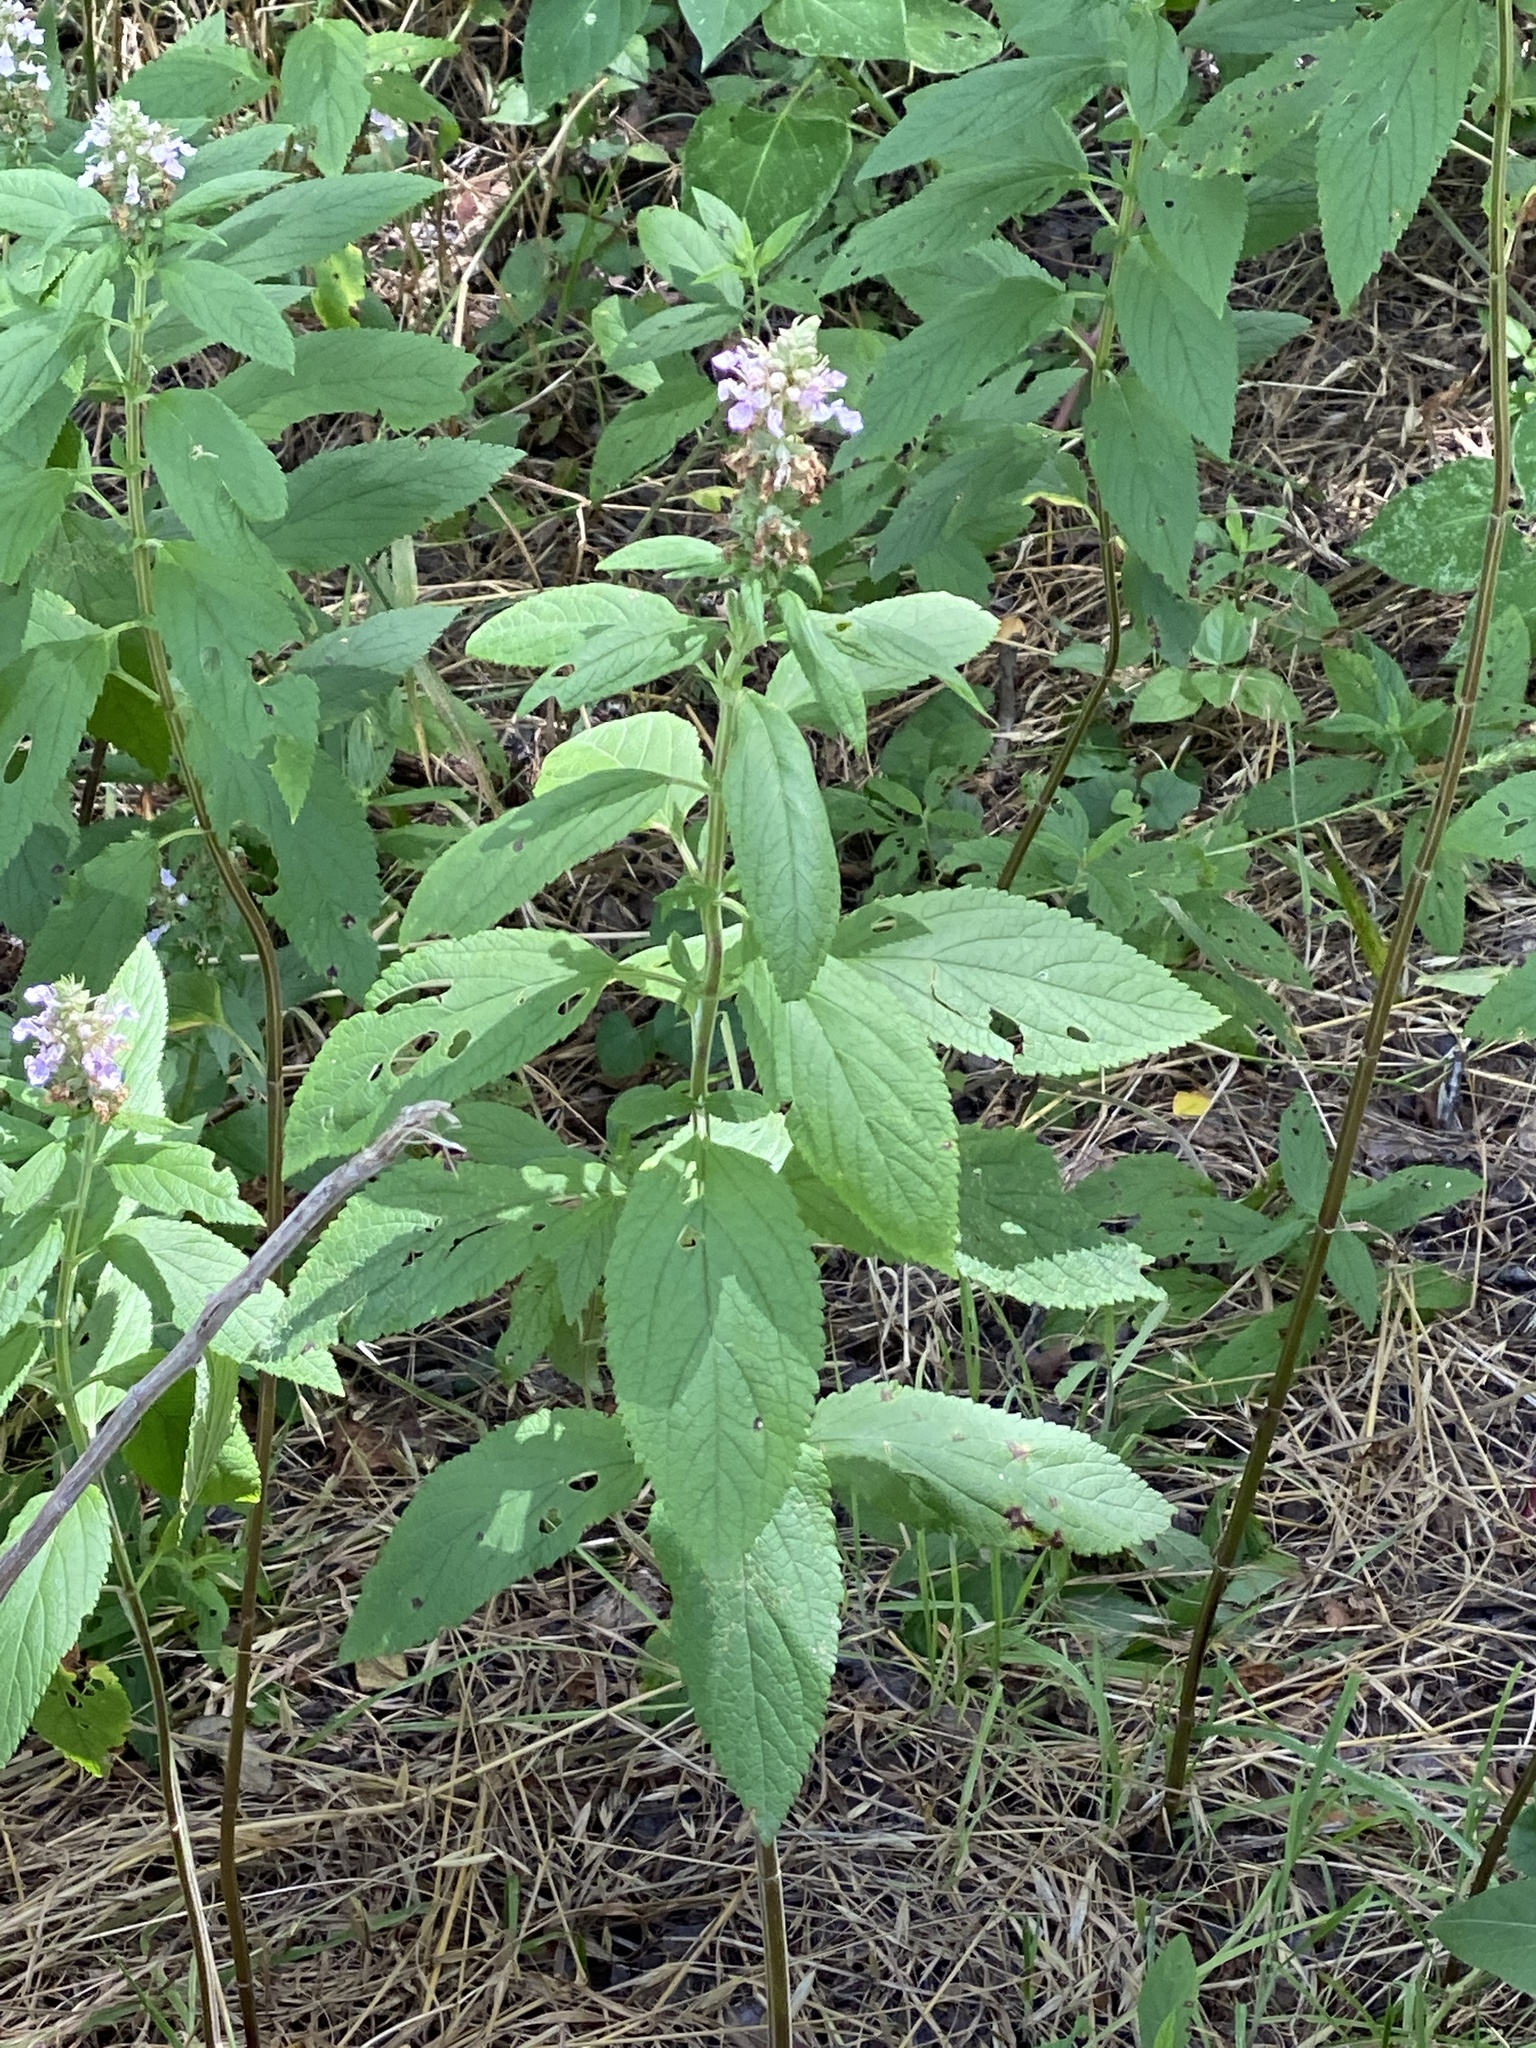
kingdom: Plantae
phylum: Tracheophyta
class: Magnoliopsida
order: Lamiales
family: Lamiaceae
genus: Teucrium
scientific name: Teucrium canadense
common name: American germander
